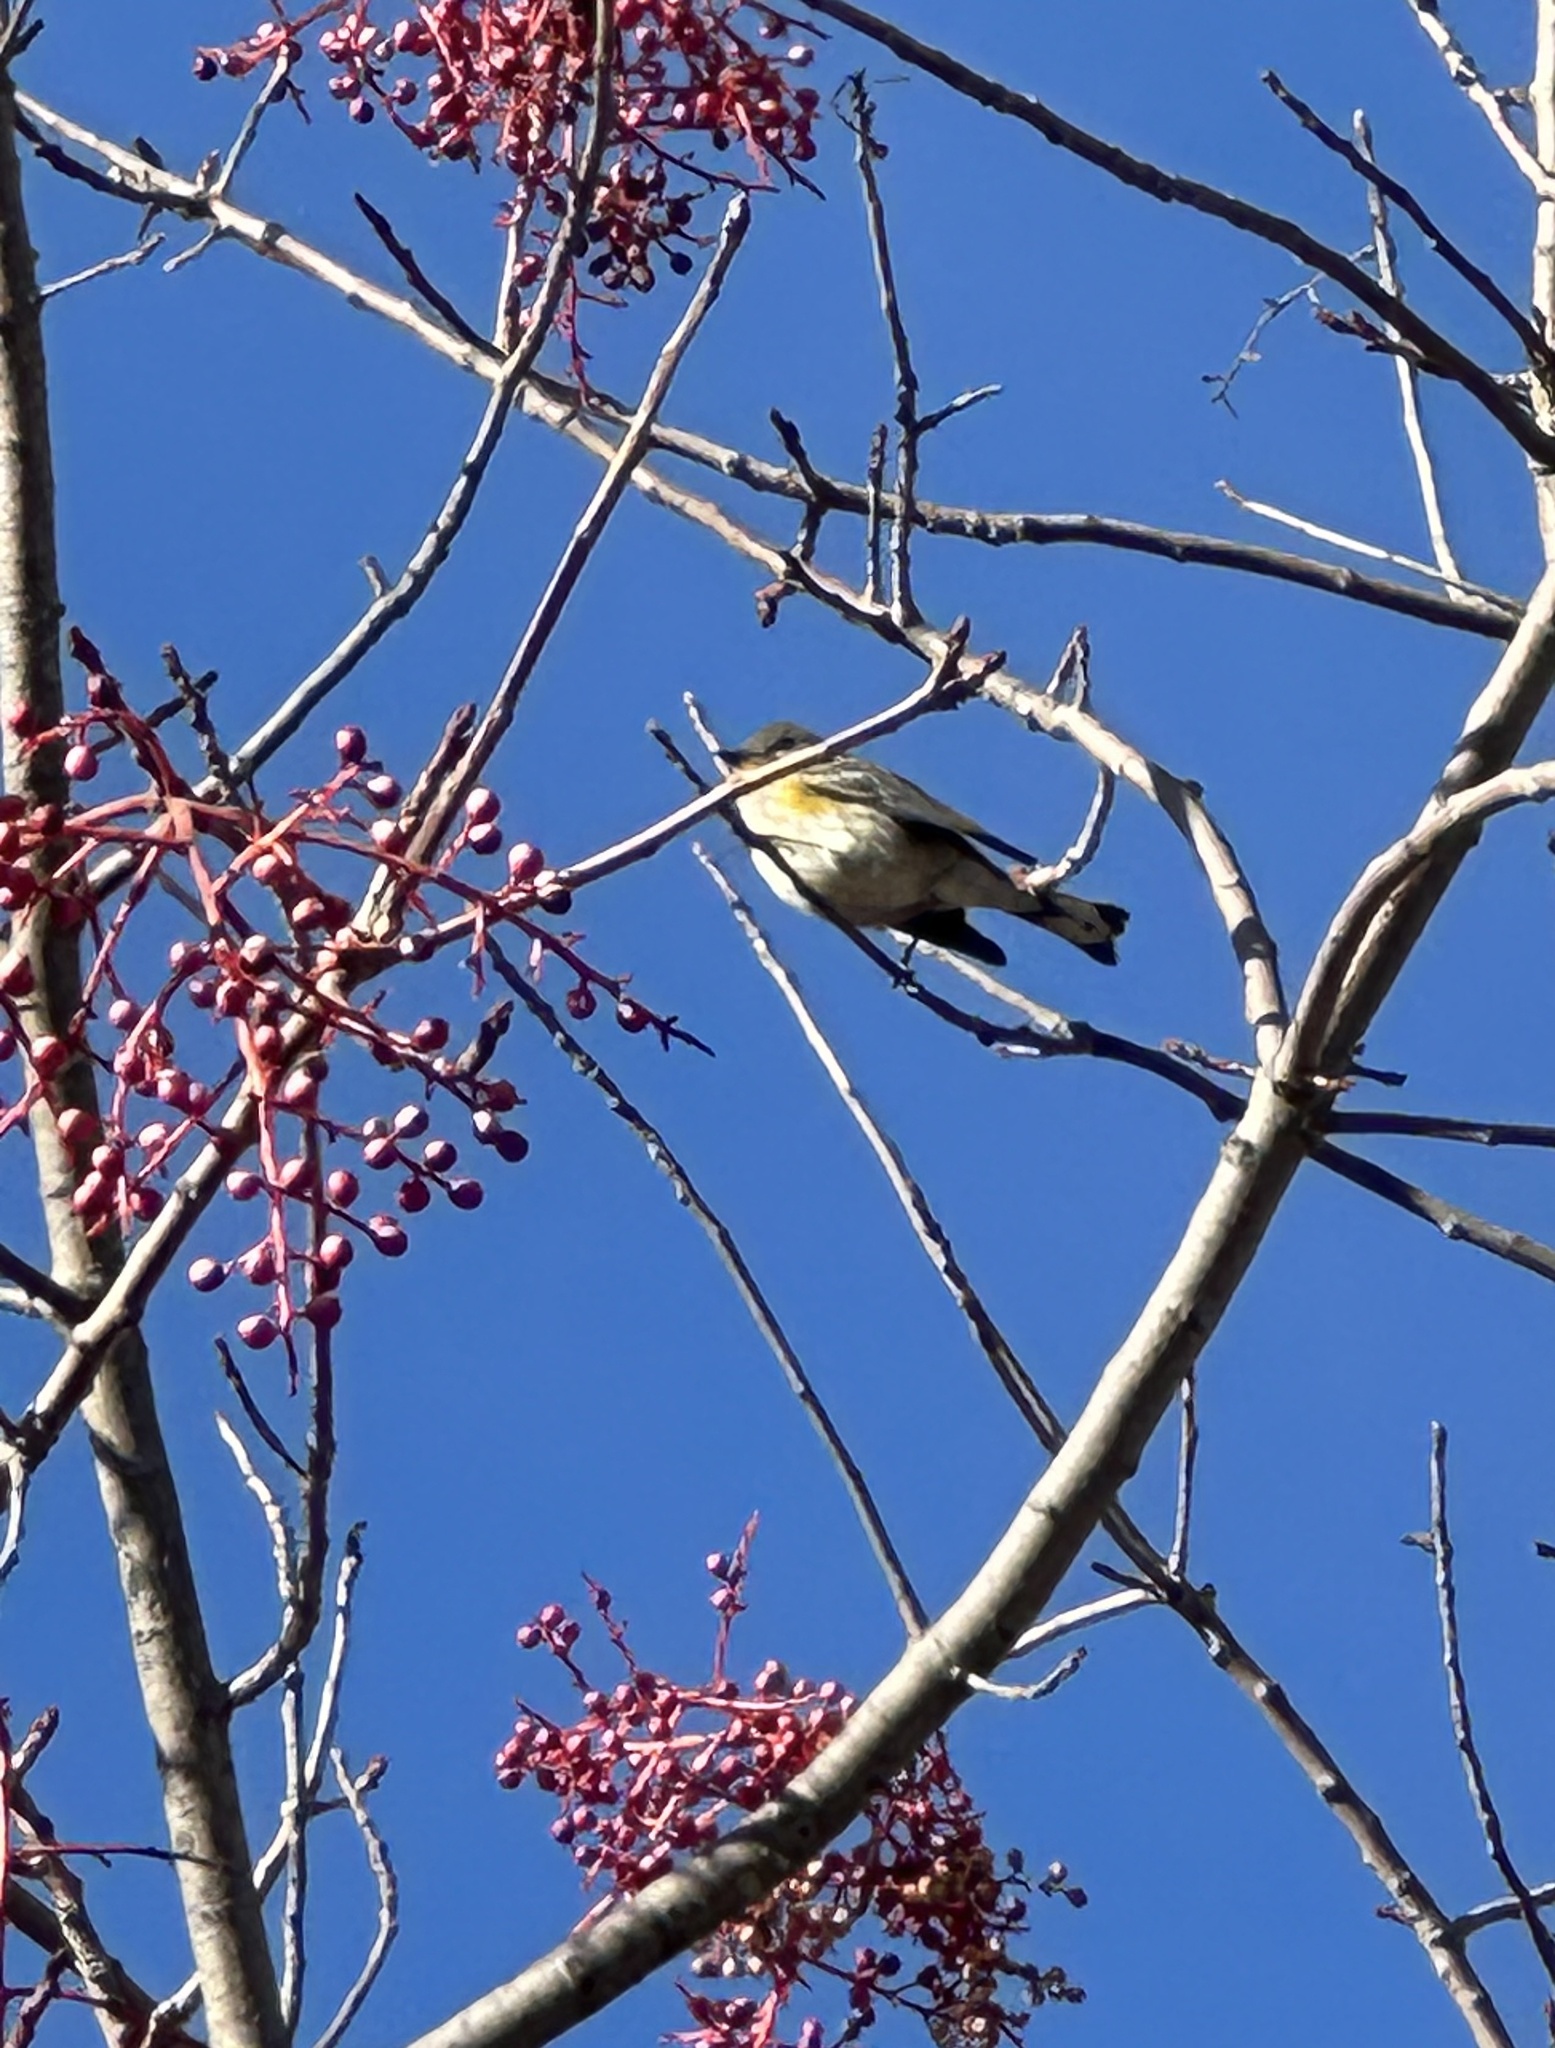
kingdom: Animalia
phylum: Chordata
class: Aves
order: Passeriformes
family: Parulidae
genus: Setophaga
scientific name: Setophaga coronata
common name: Myrtle warbler
